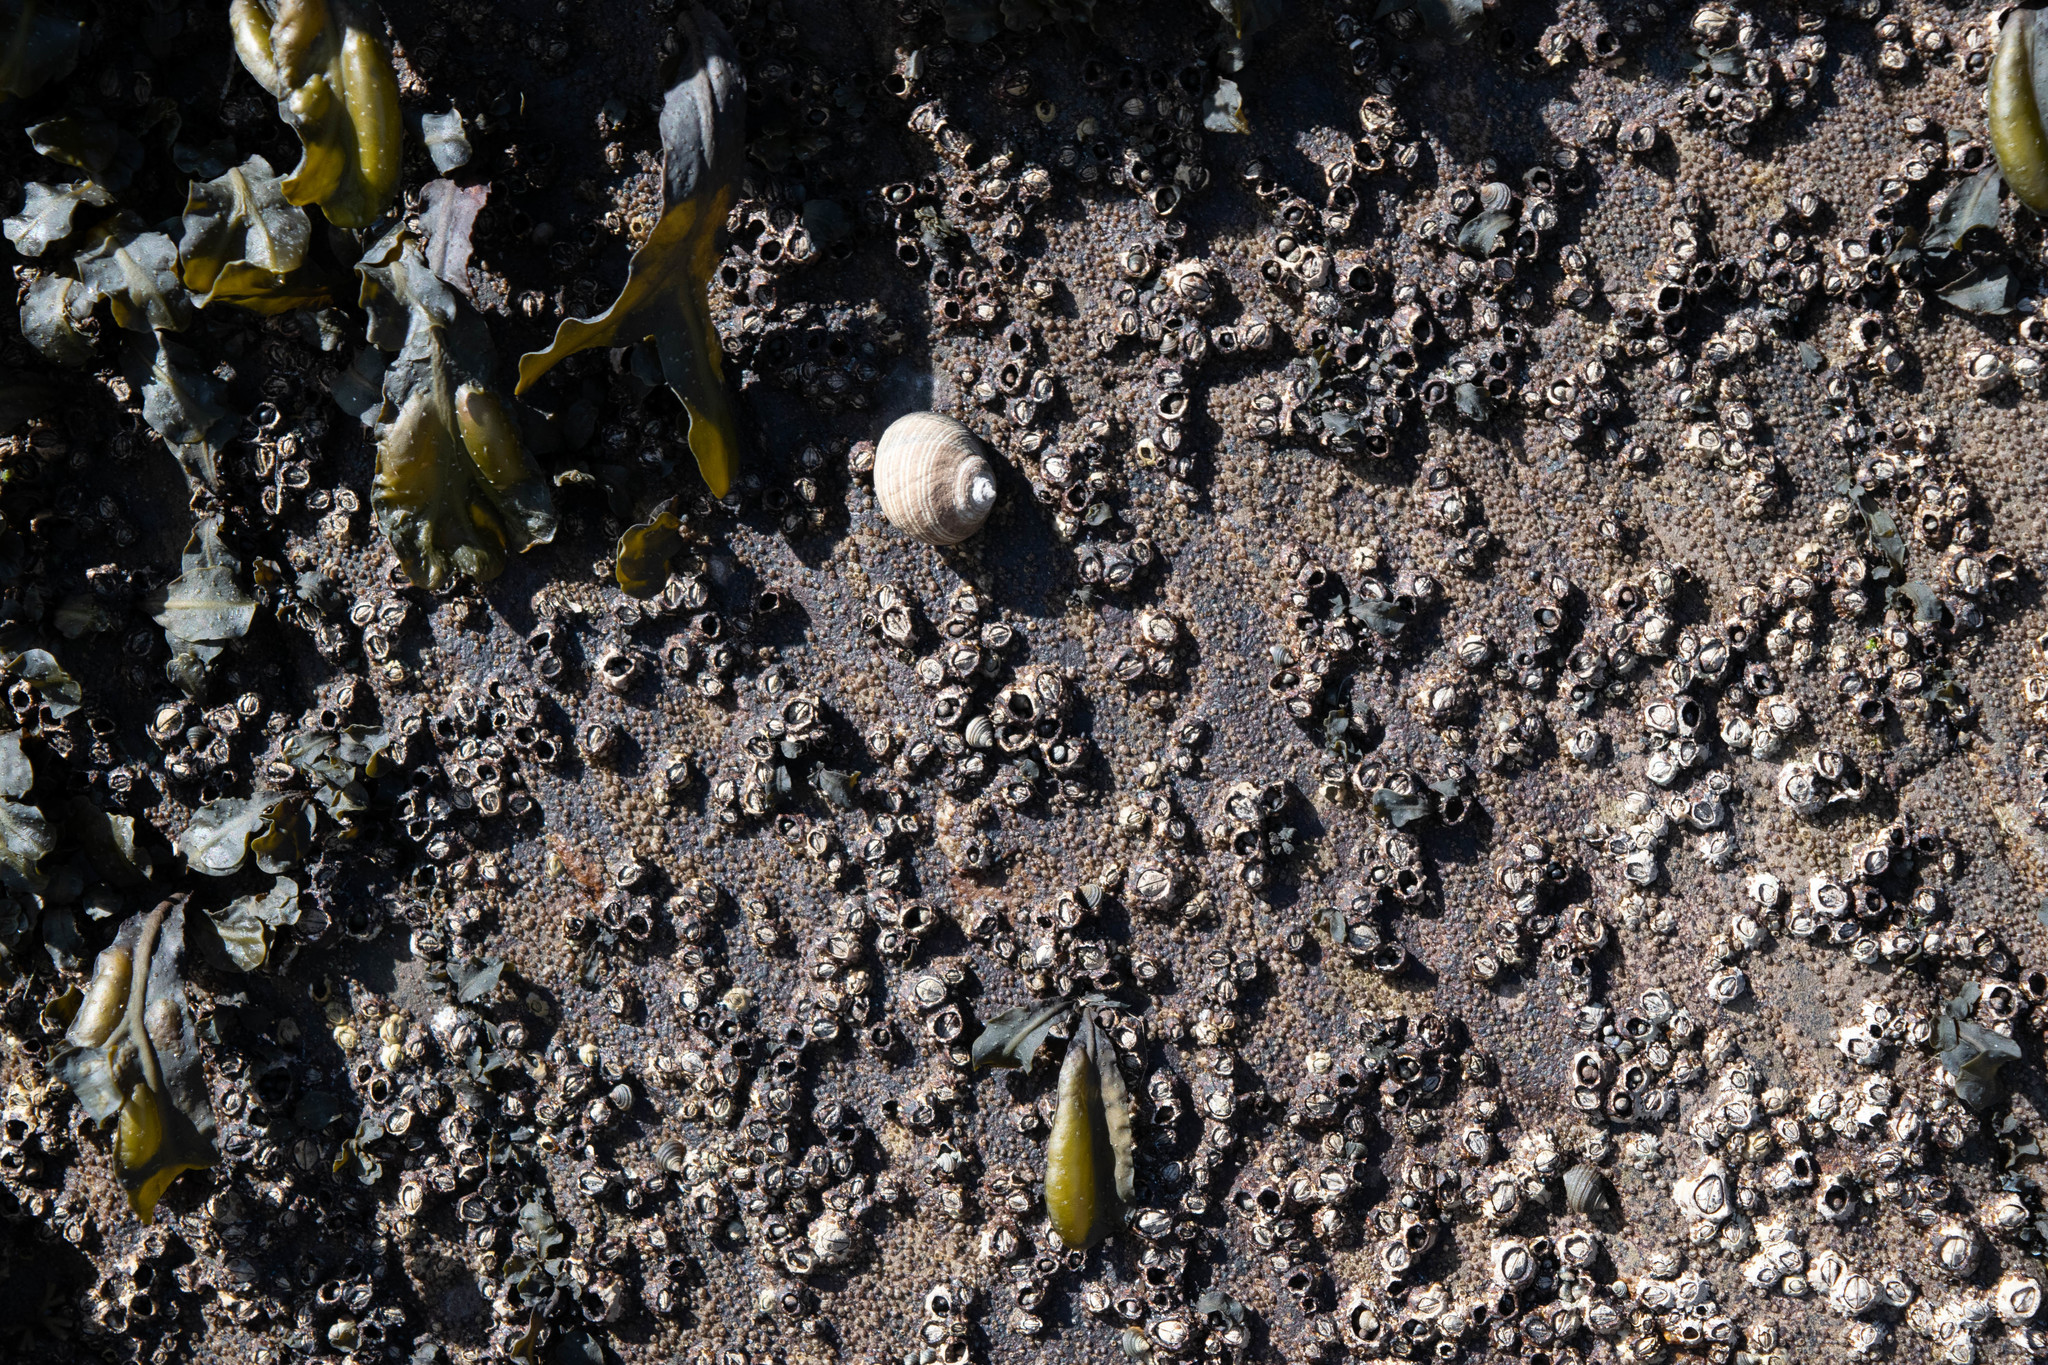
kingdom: Animalia
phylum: Mollusca
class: Gastropoda
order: Littorinimorpha
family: Littorinidae
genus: Littorina
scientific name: Littorina littorea
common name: Common periwinkle
